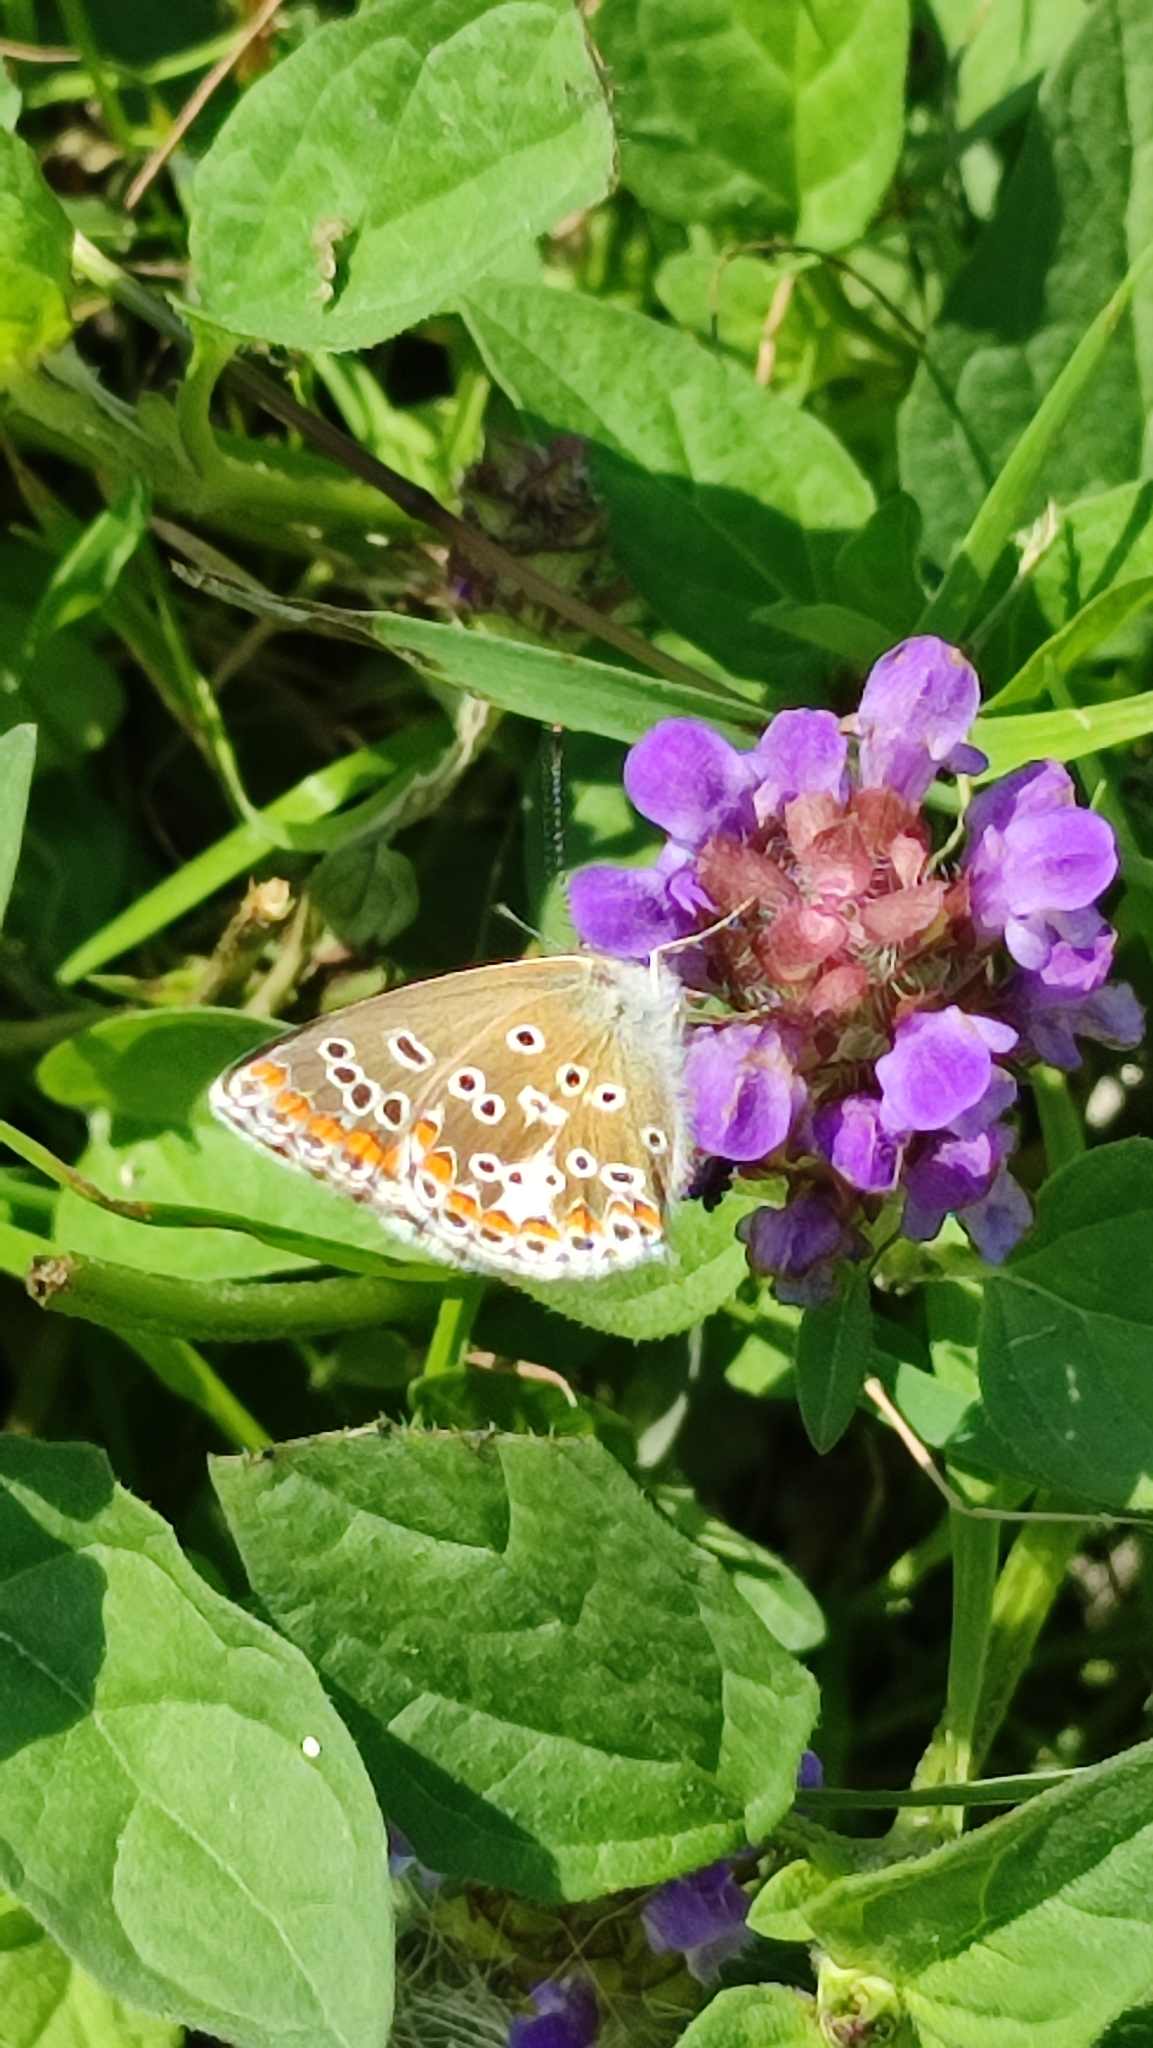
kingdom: Animalia
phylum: Arthropoda
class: Insecta
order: Lepidoptera
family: Lycaenidae
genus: Aricia
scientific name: Aricia agestis
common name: Brown argus
